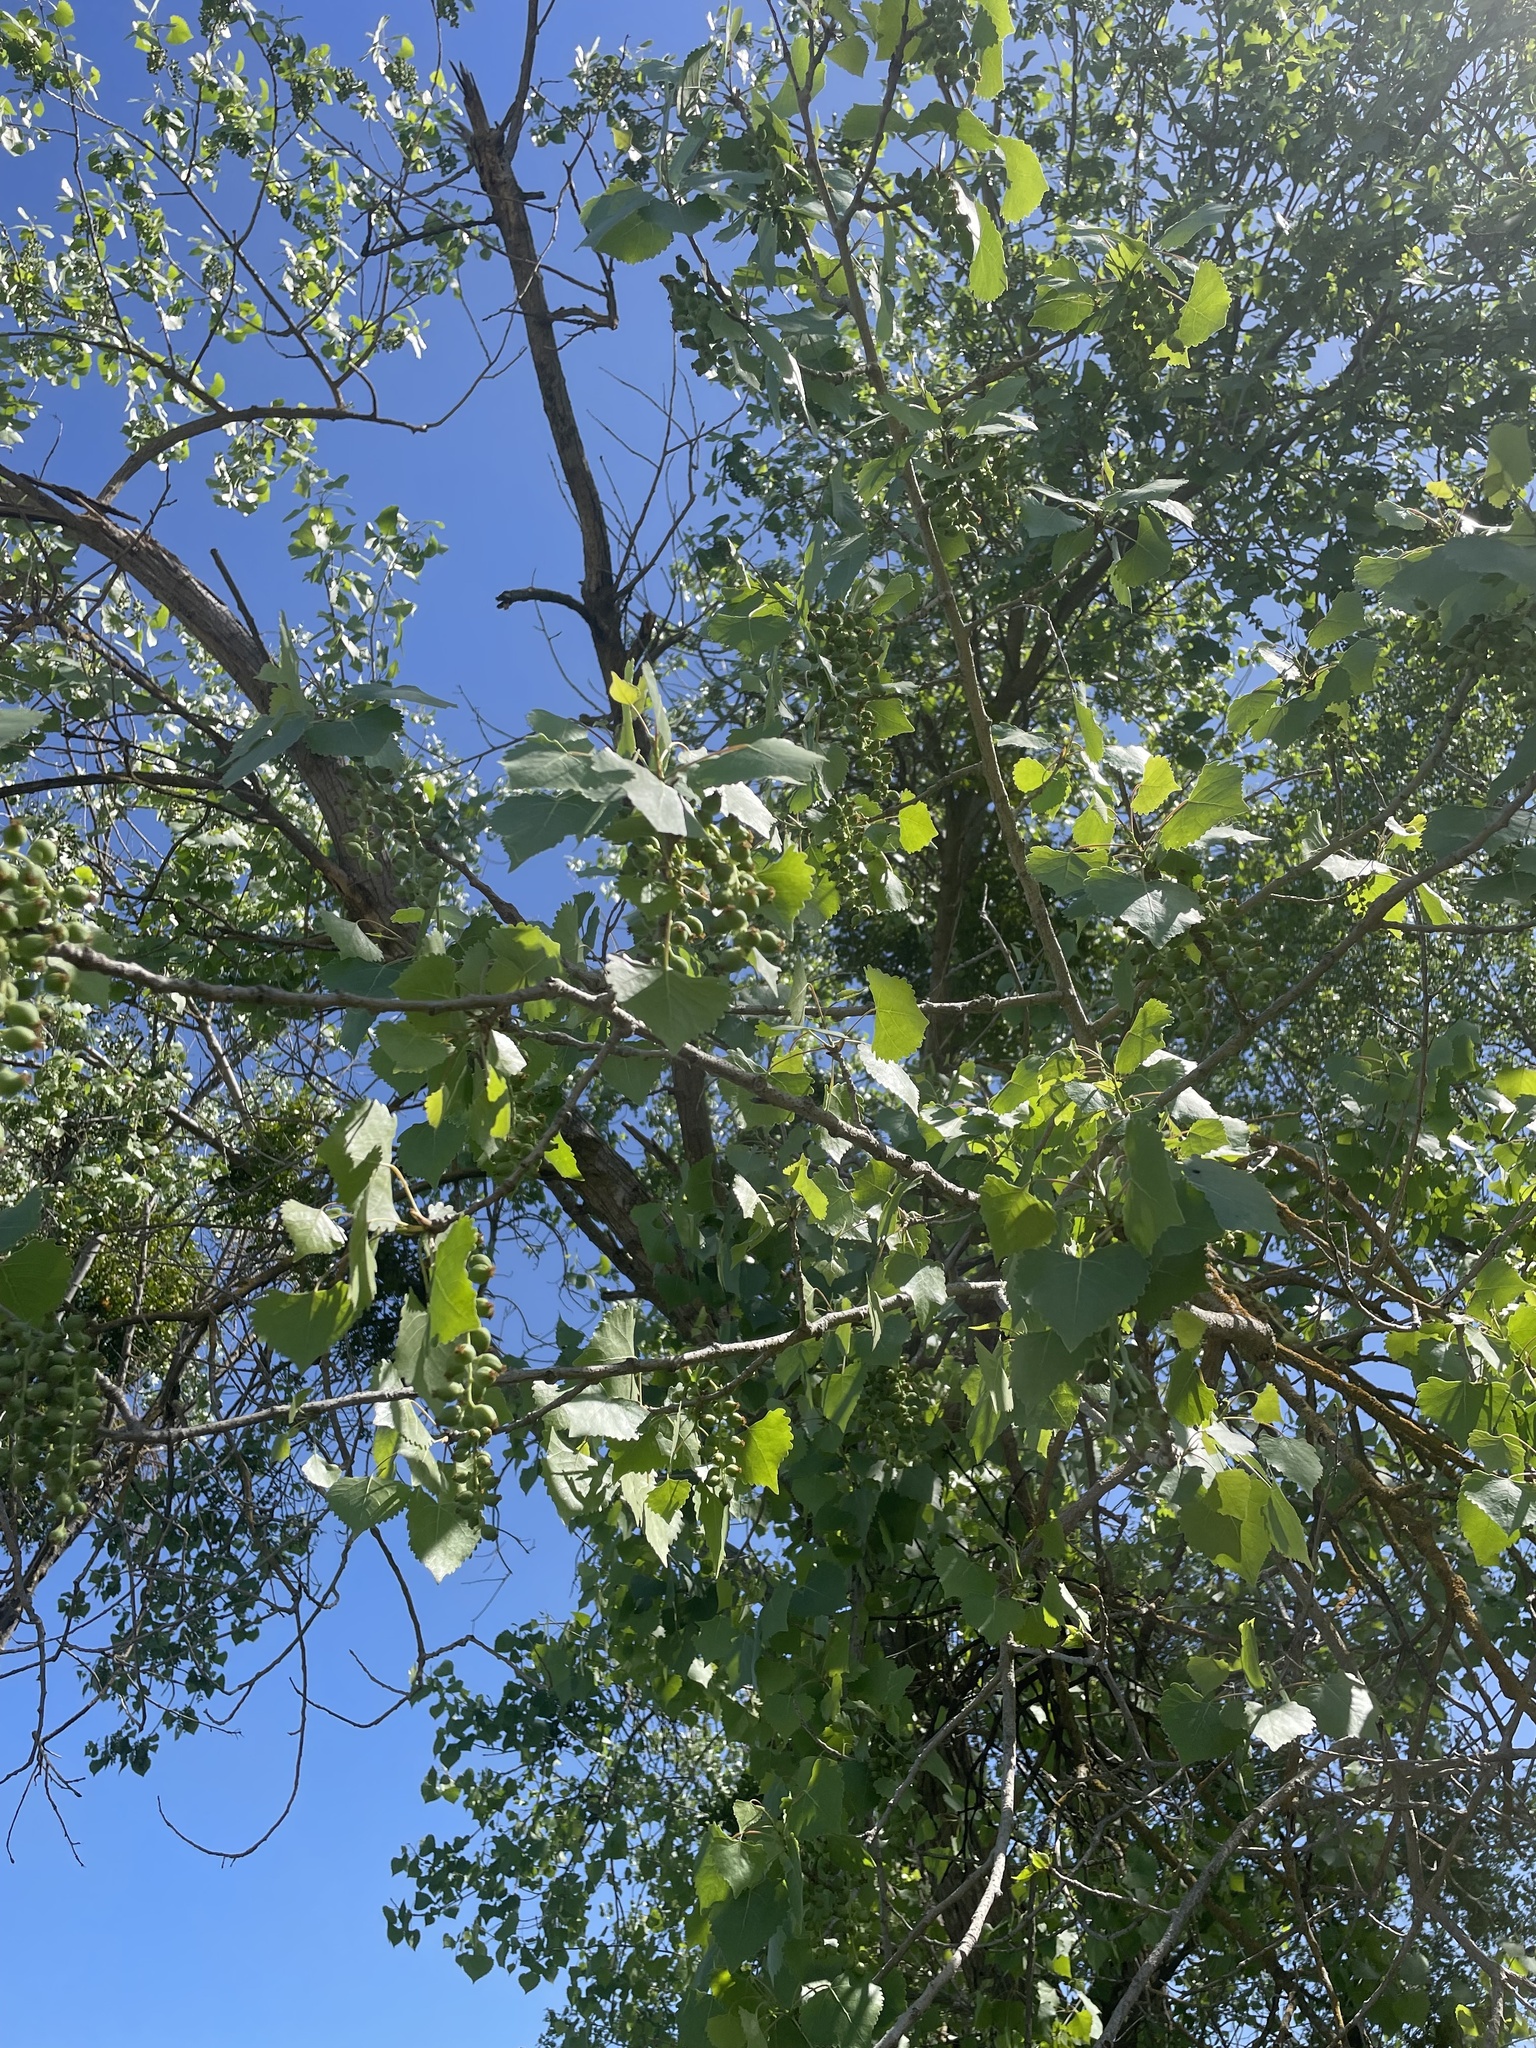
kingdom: Plantae
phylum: Tracheophyta
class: Magnoliopsida
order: Malpighiales
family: Salicaceae
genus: Populus
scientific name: Populus fremontii
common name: Fremont's cottonwood
